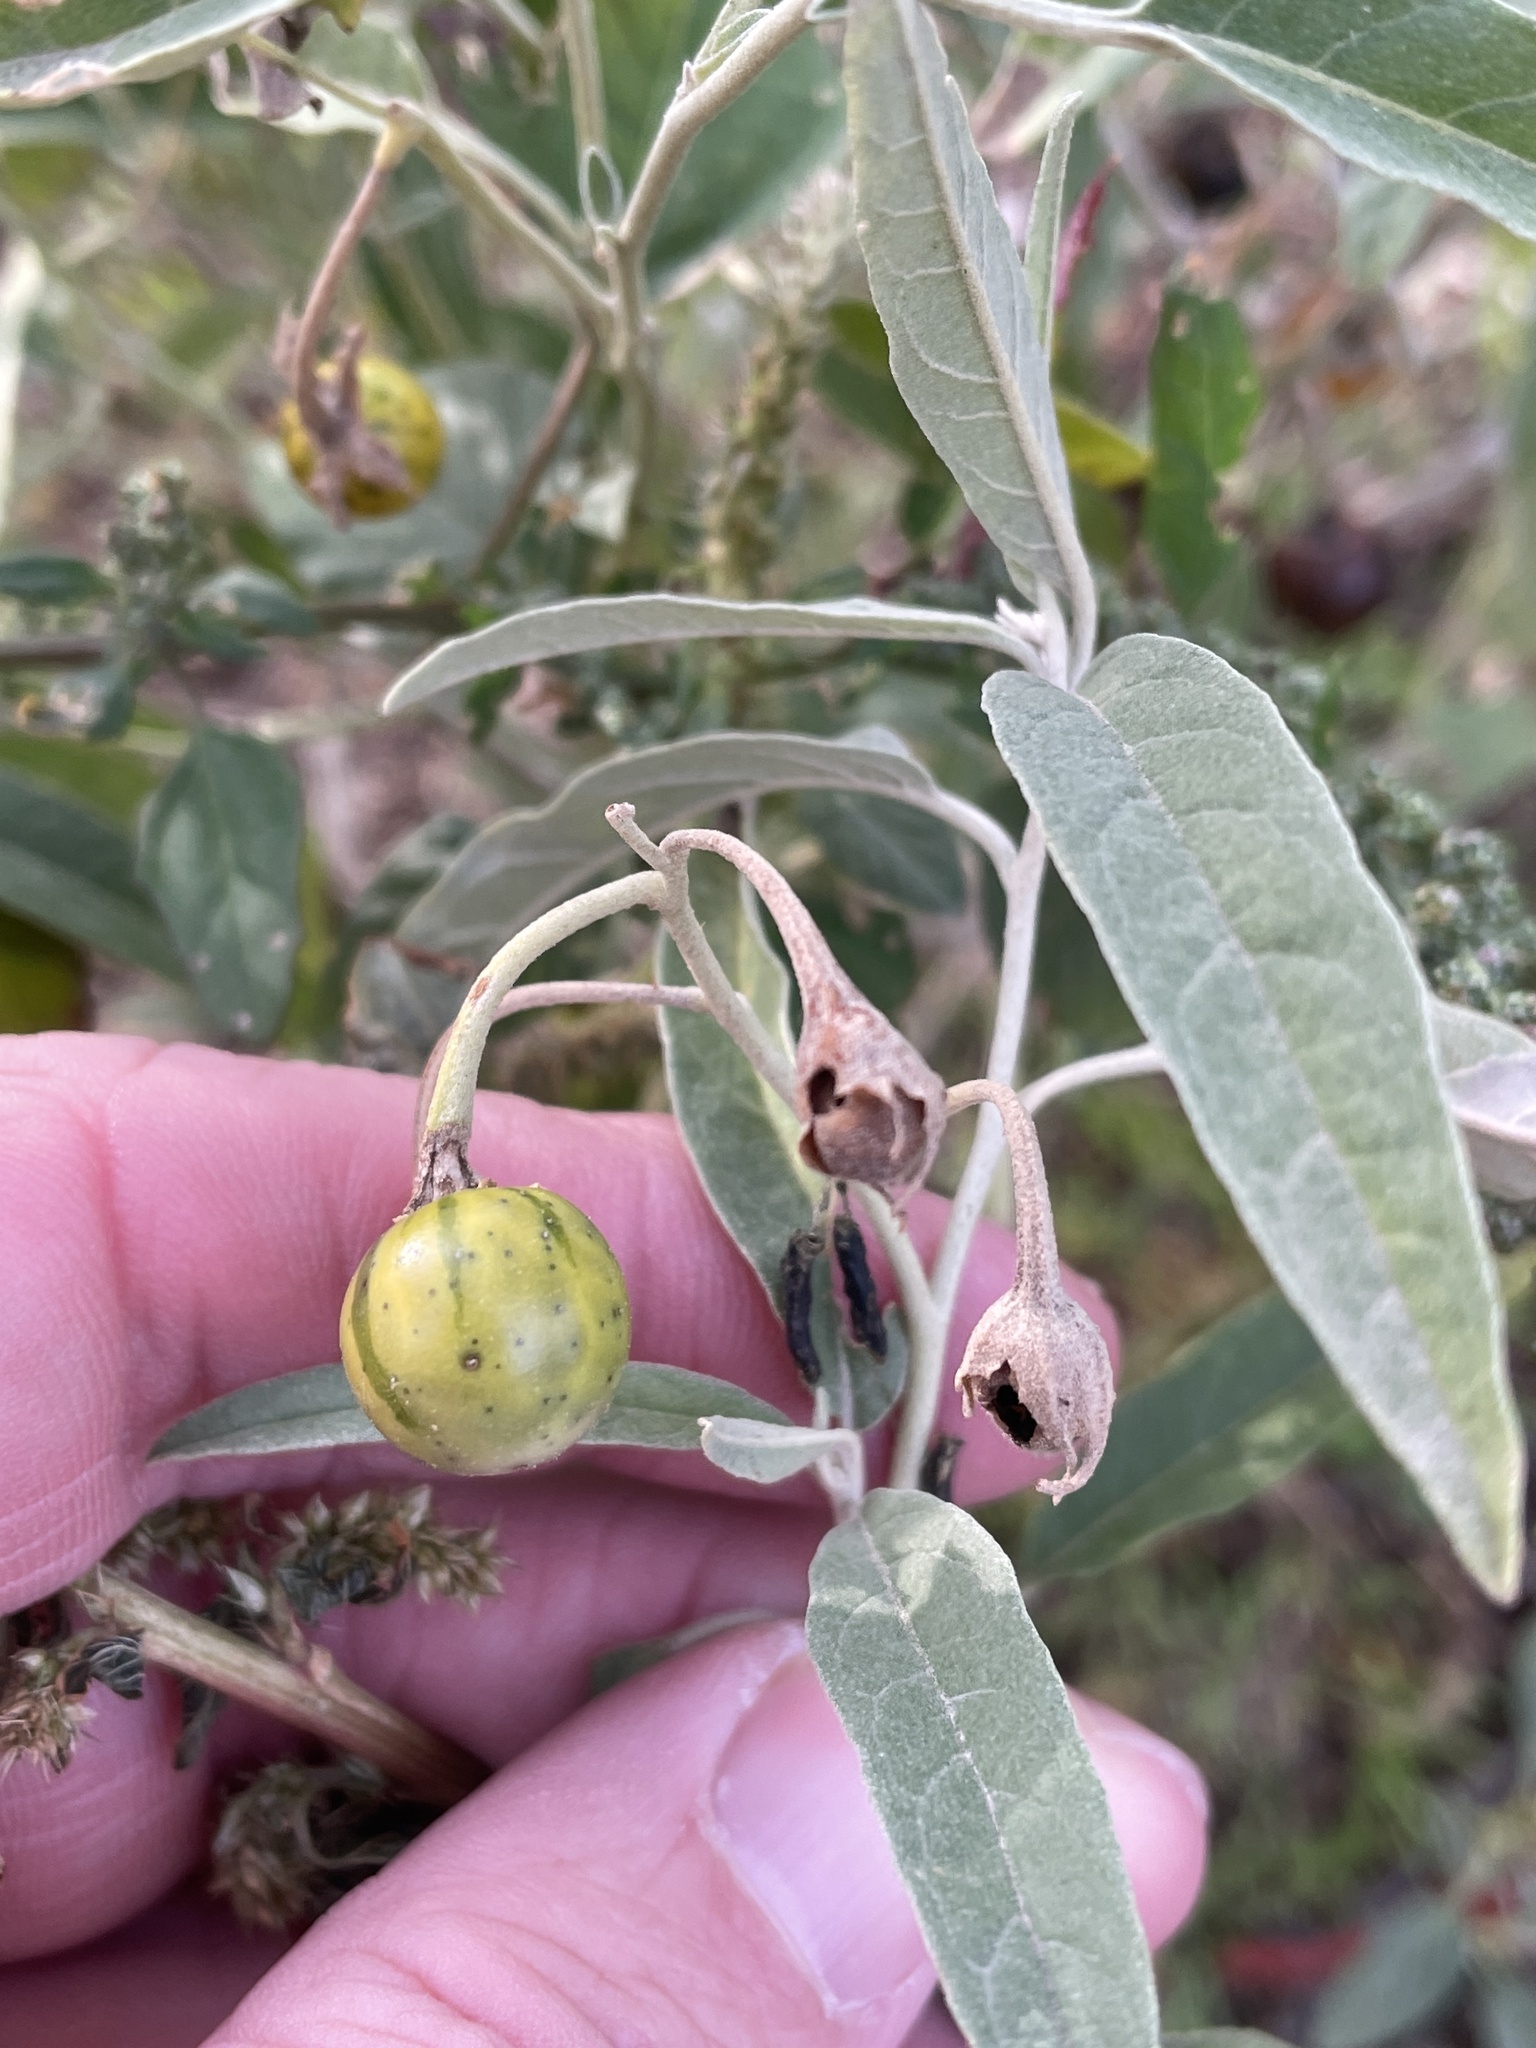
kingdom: Plantae
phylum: Tracheophyta
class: Magnoliopsida
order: Solanales
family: Solanaceae
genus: Solanum
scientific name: Solanum elaeagnifolium
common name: Silverleaf nightshade
